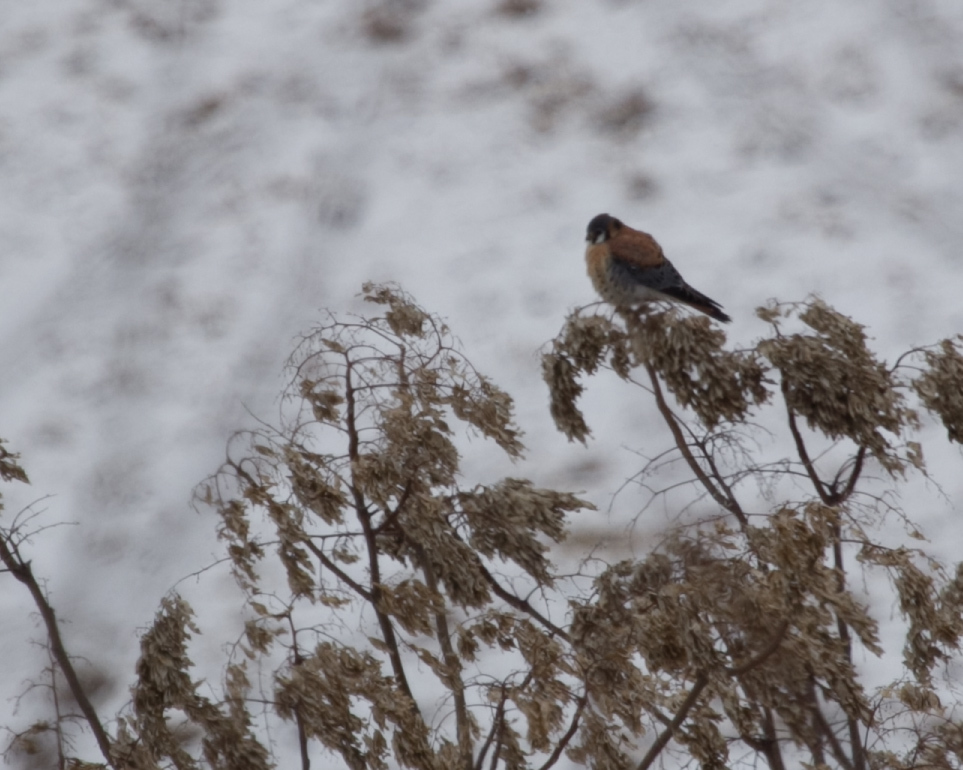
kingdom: Animalia
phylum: Chordata
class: Aves
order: Falconiformes
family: Falconidae
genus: Falco
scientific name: Falco sparverius
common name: American kestrel
